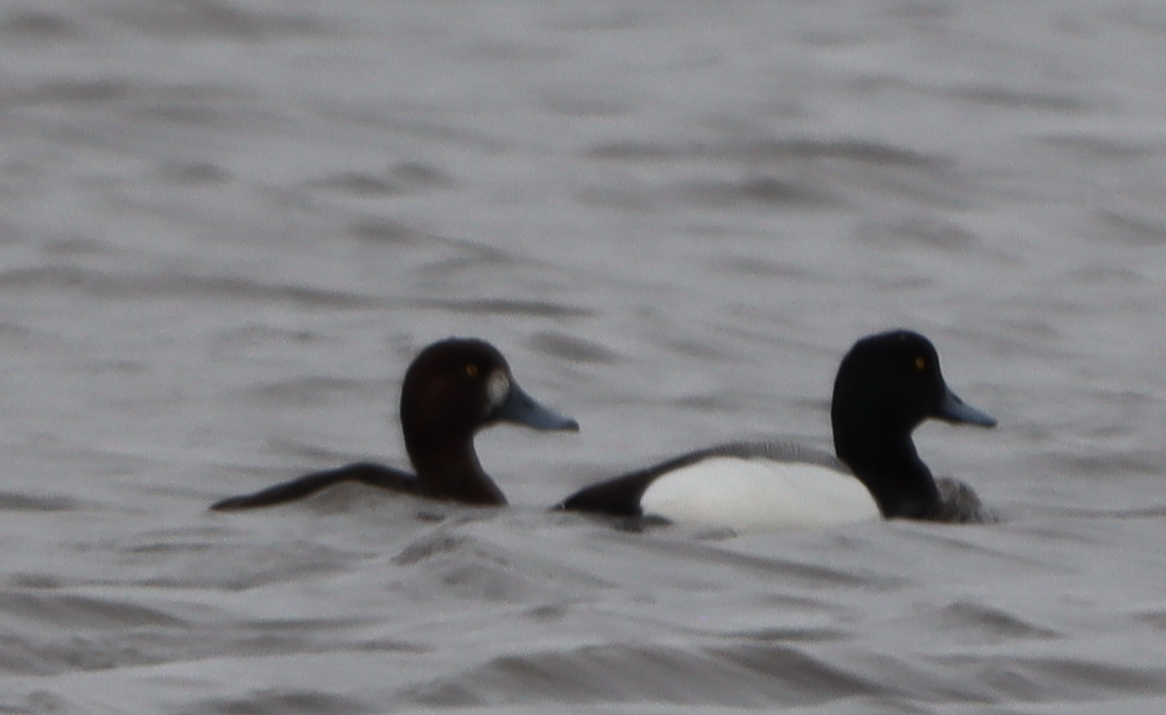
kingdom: Animalia
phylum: Chordata
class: Aves
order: Anseriformes
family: Anatidae
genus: Aythya
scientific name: Aythya affinis
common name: Lesser scaup
